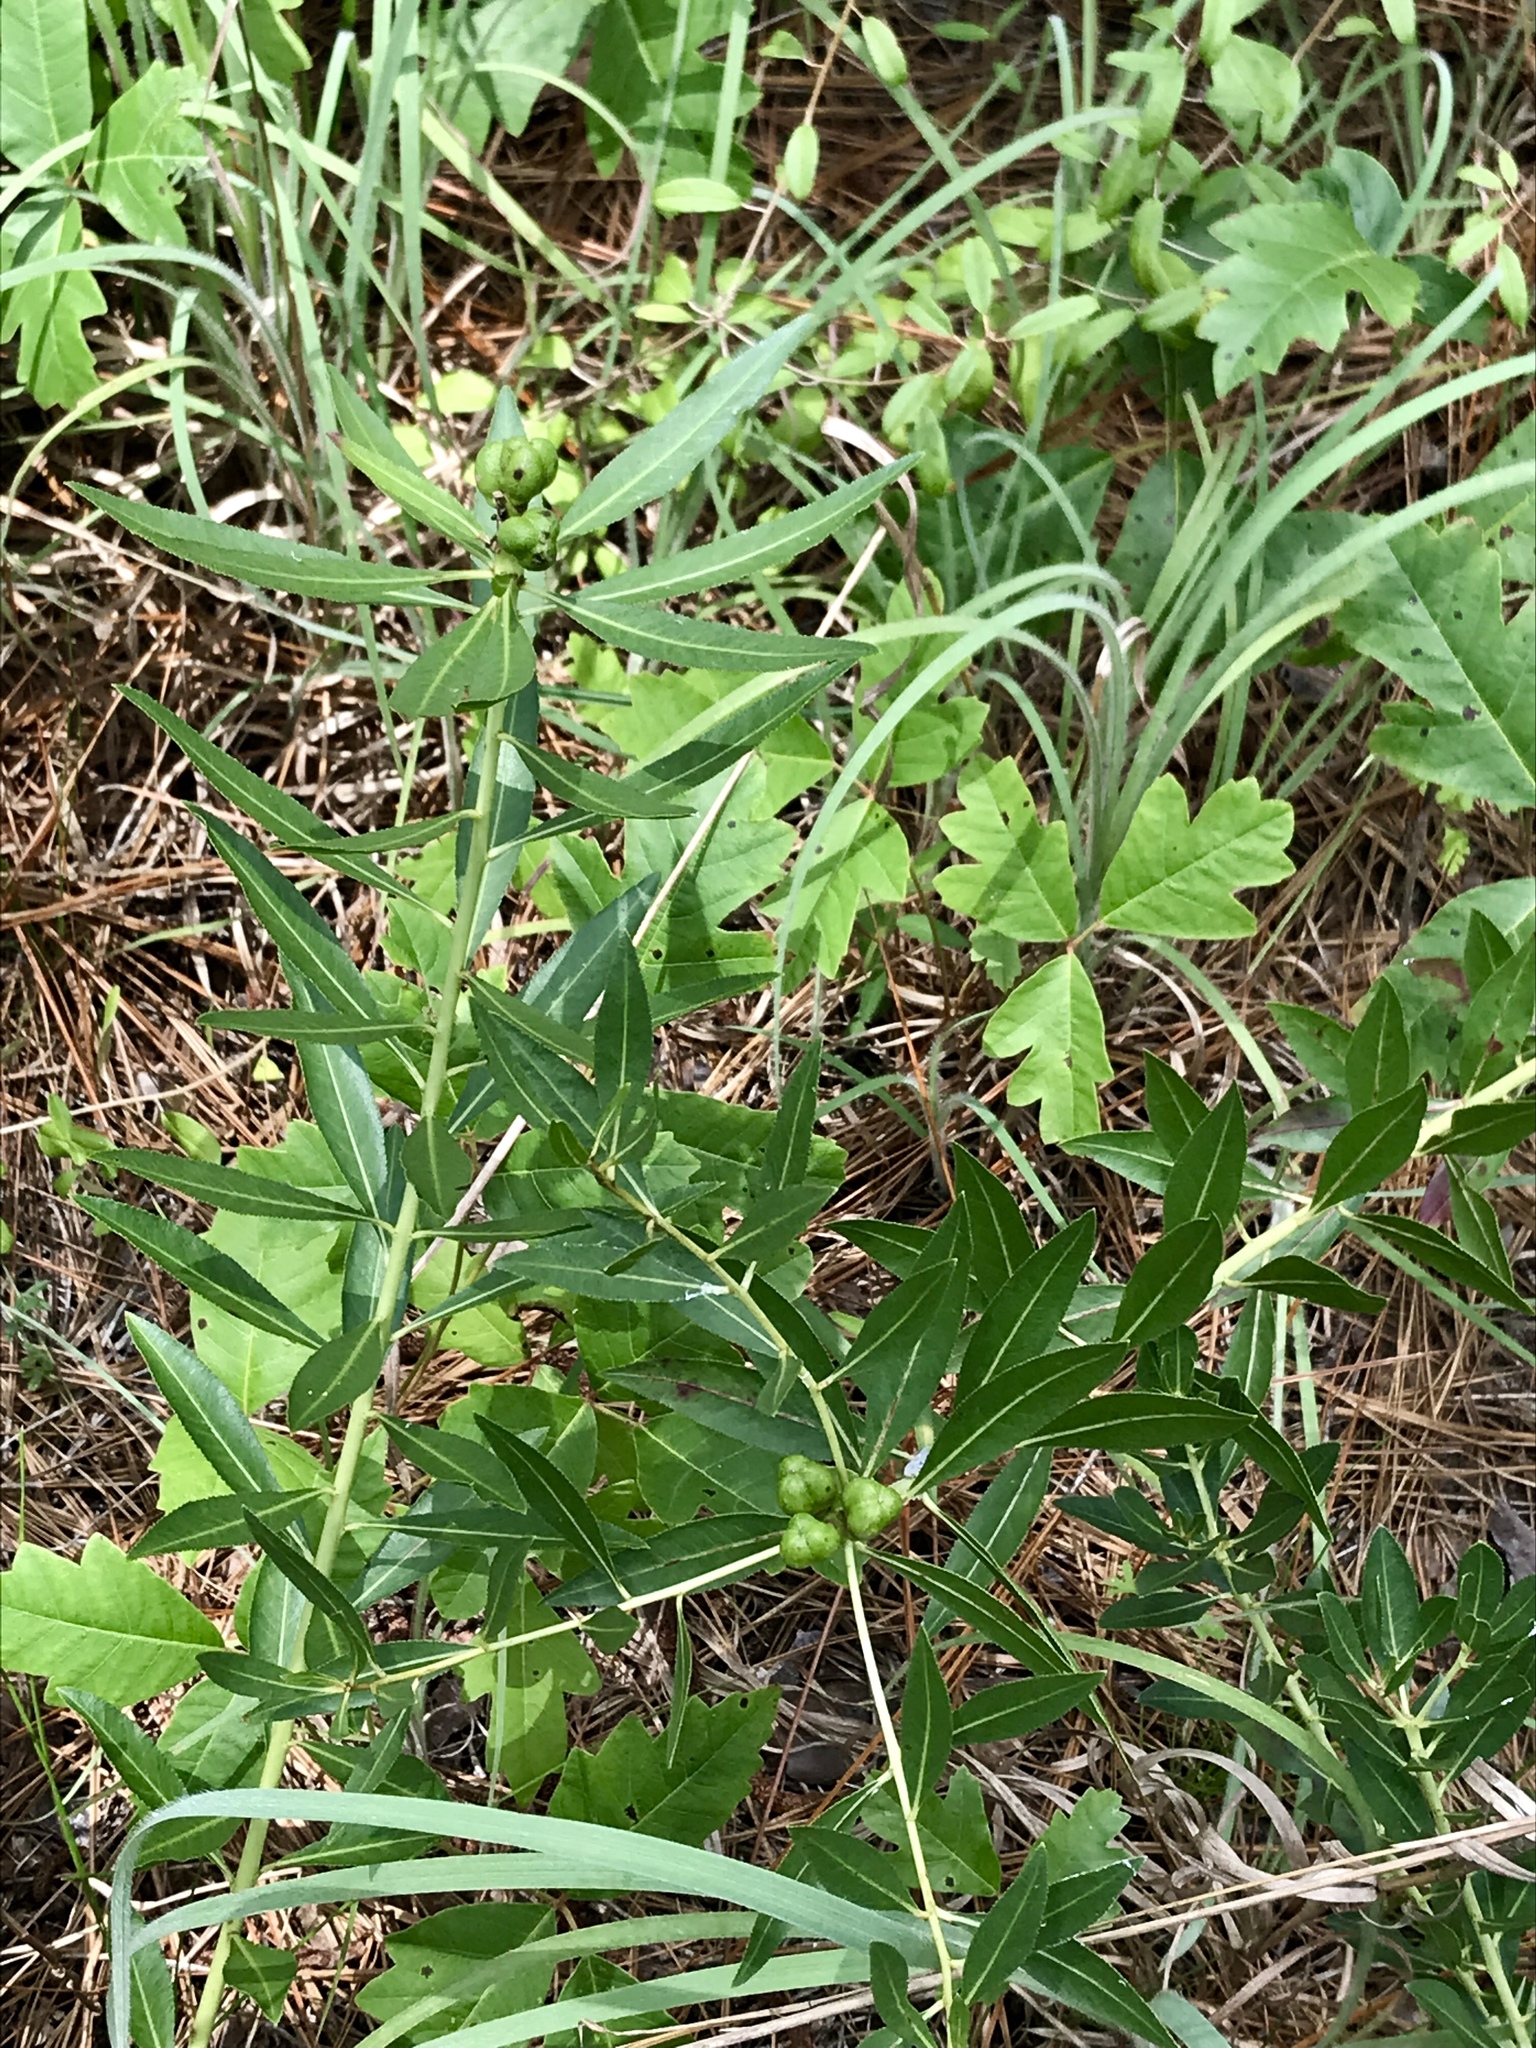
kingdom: Plantae
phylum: Tracheophyta
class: Magnoliopsida
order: Malpighiales
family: Euphorbiaceae
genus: Stillingia
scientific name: Stillingia sylvatica
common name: Queen's-delight
